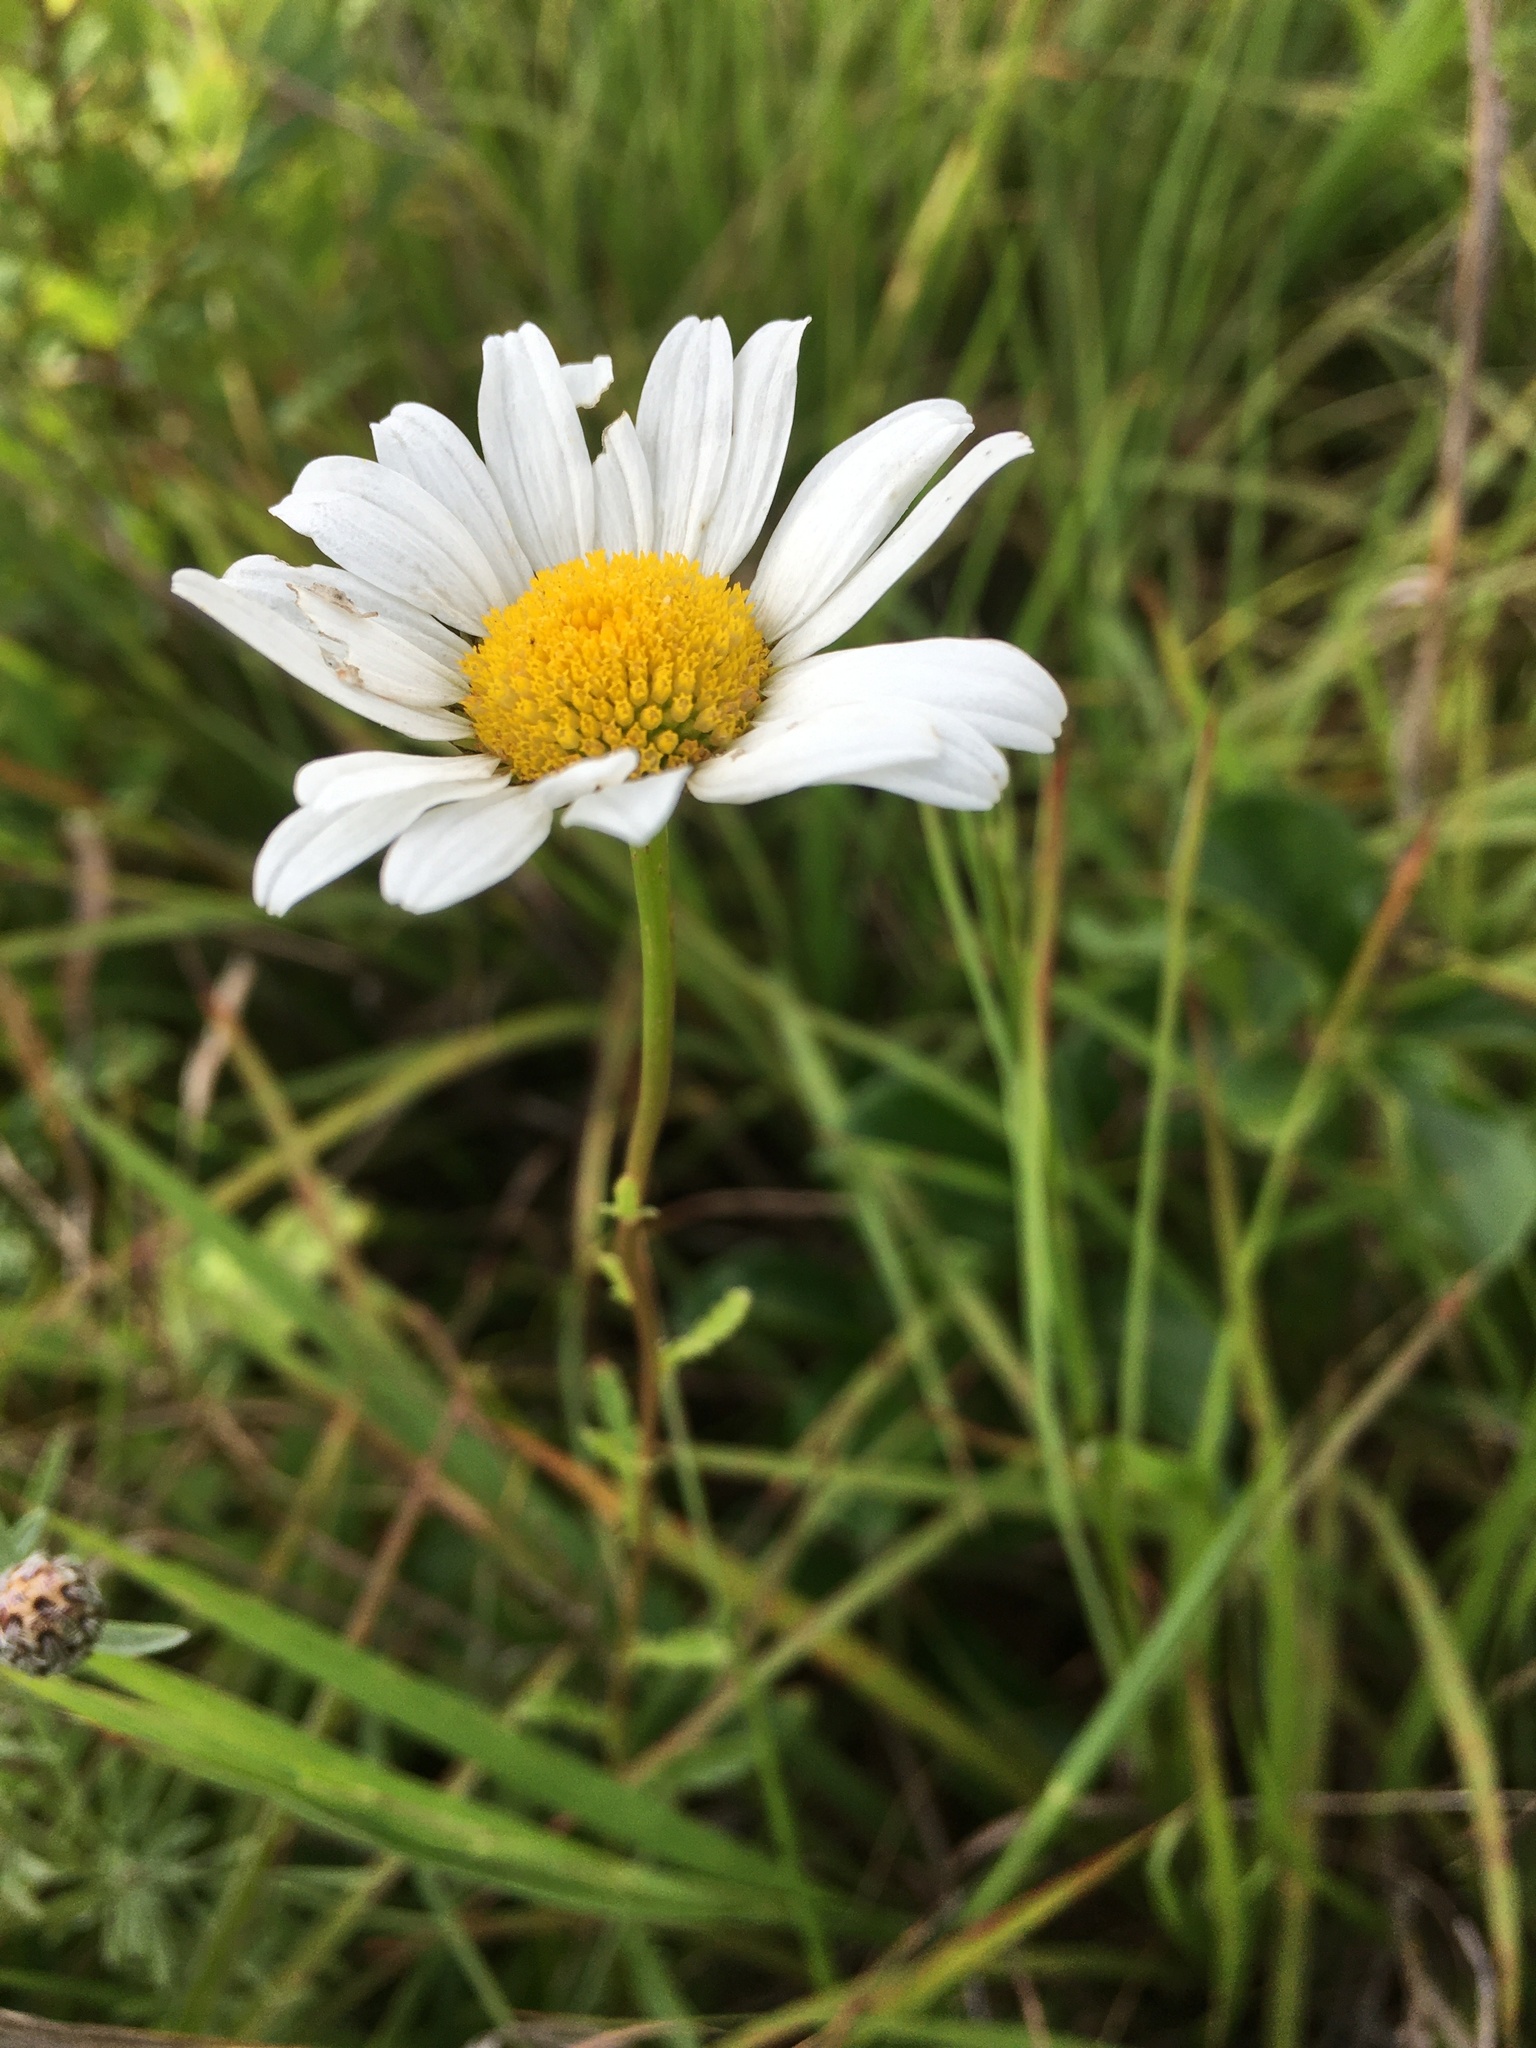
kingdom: Plantae
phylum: Tracheophyta
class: Magnoliopsida
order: Asterales
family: Asteraceae
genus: Leucanthemum
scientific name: Leucanthemum vulgare
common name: Oxeye daisy
